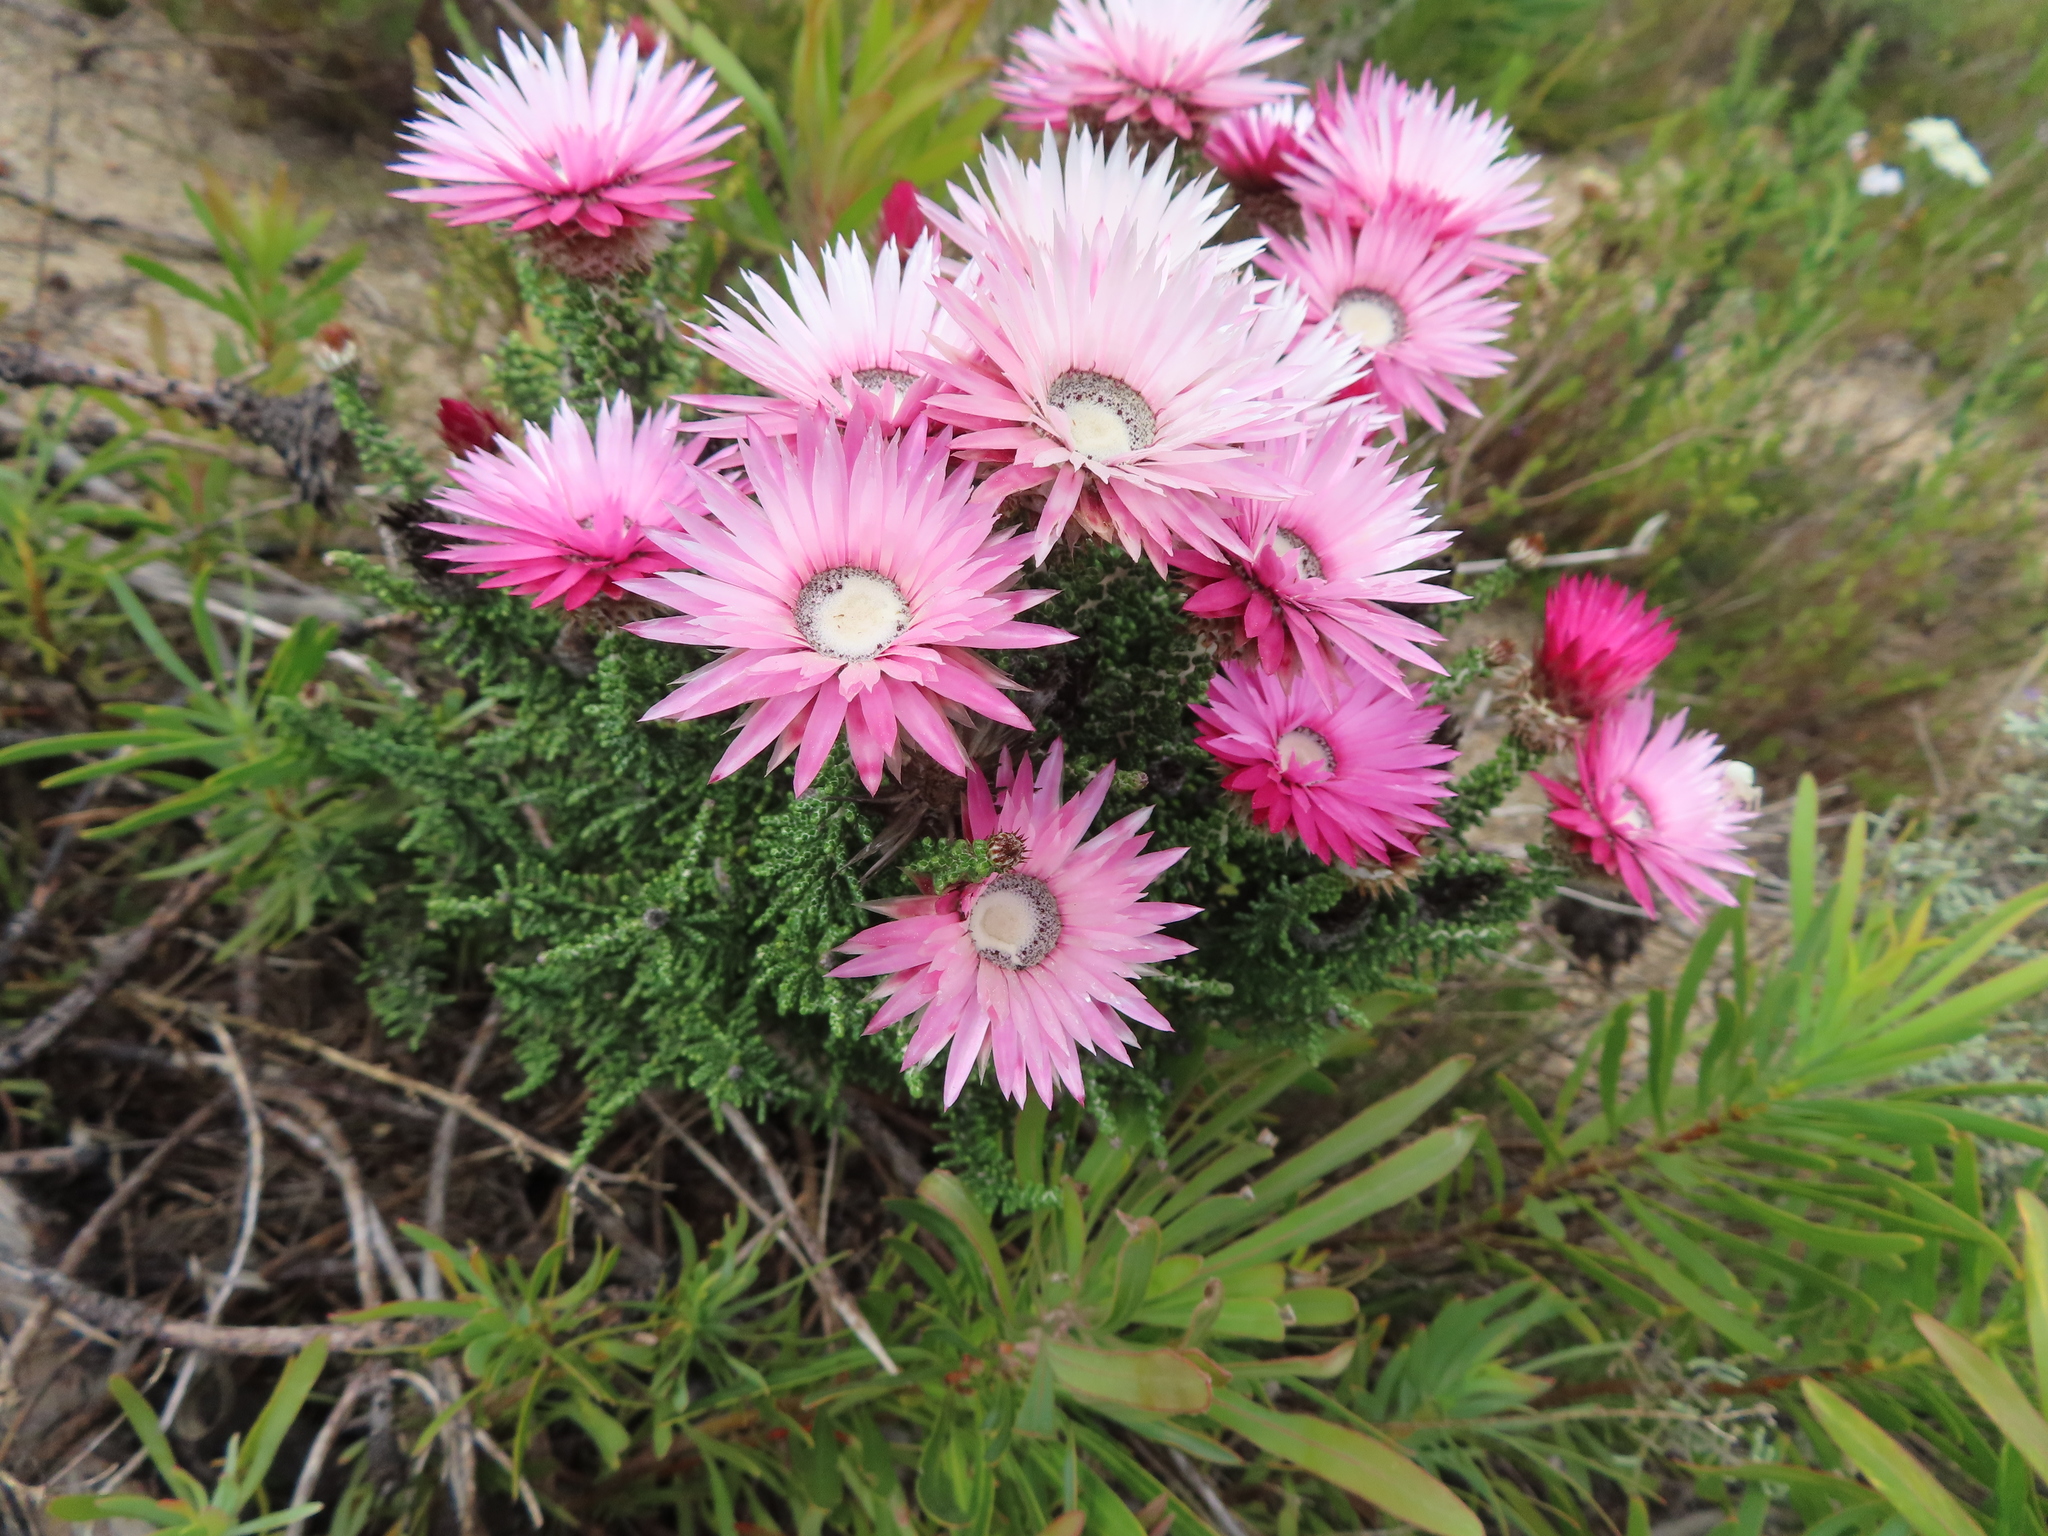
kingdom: Plantae
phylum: Tracheophyta
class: Magnoliopsida
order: Asterales
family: Asteraceae
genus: Phaenocoma
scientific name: Phaenocoma prolifera
